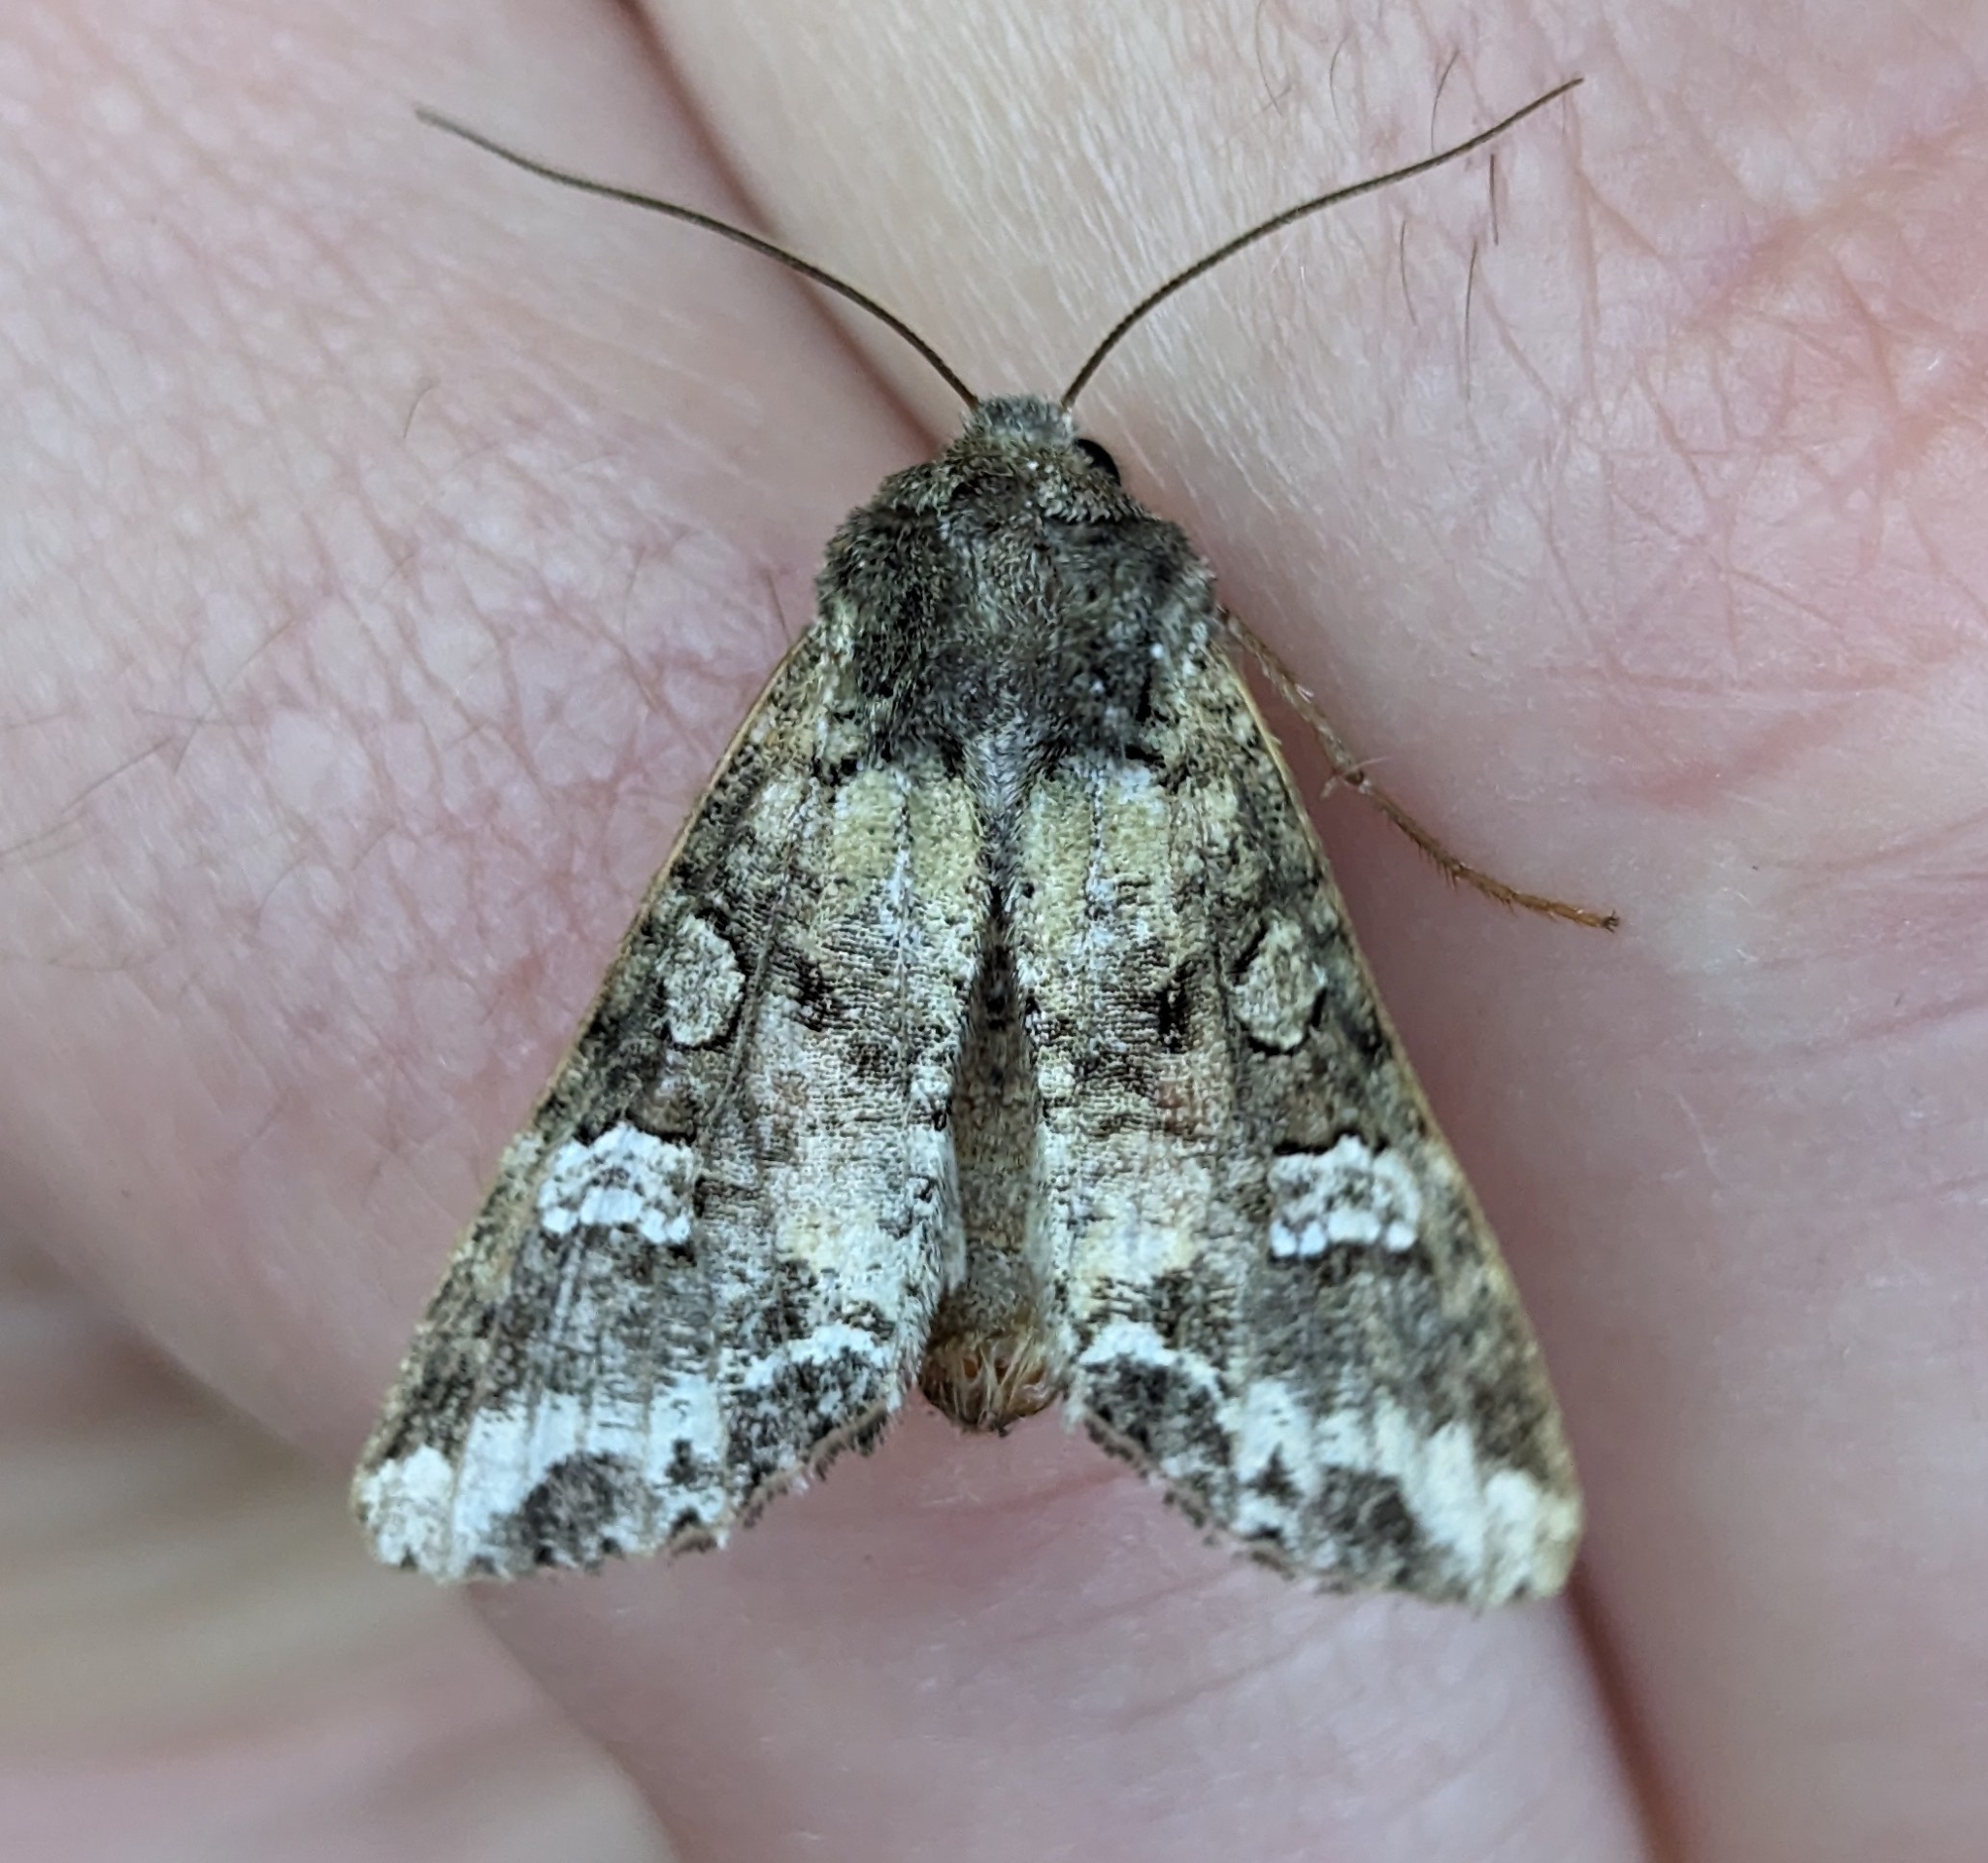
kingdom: Animalia
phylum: Arthropoda
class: Insecta
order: Lepidoptera
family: Noctuidae
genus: Mamestra
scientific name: Mamestra configurata
